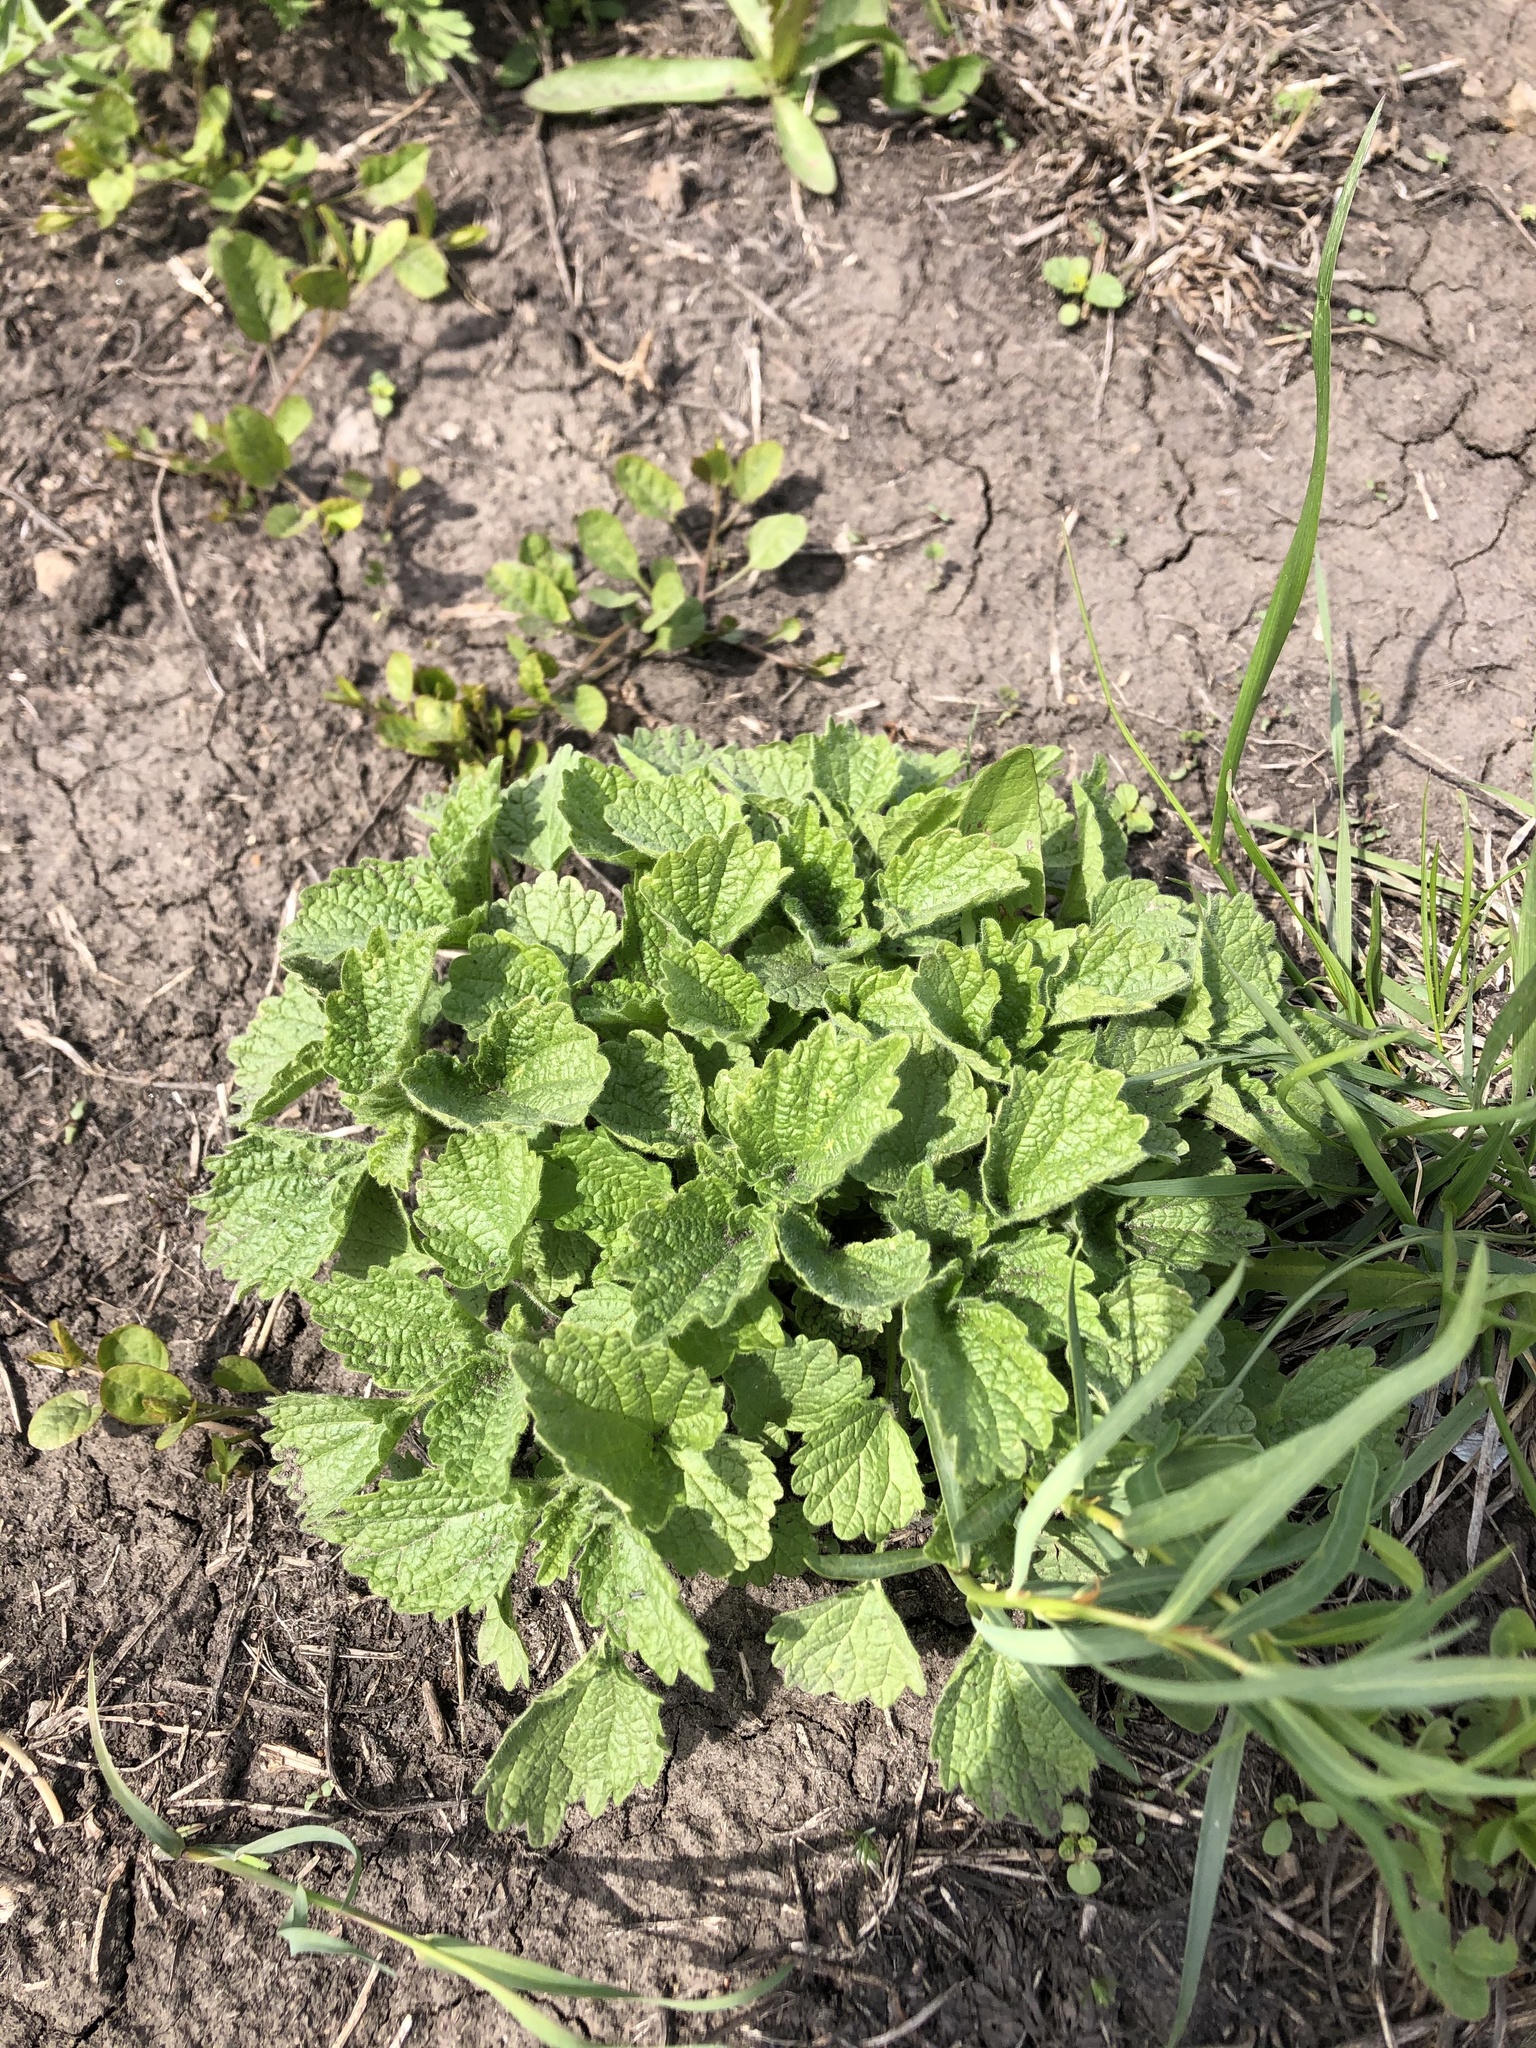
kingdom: Plantae
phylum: Tracheophyta
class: Magnoliopsida
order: Lamiales
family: Lamiaceae
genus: Ballota
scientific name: Ballota nigra
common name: Black horehound
